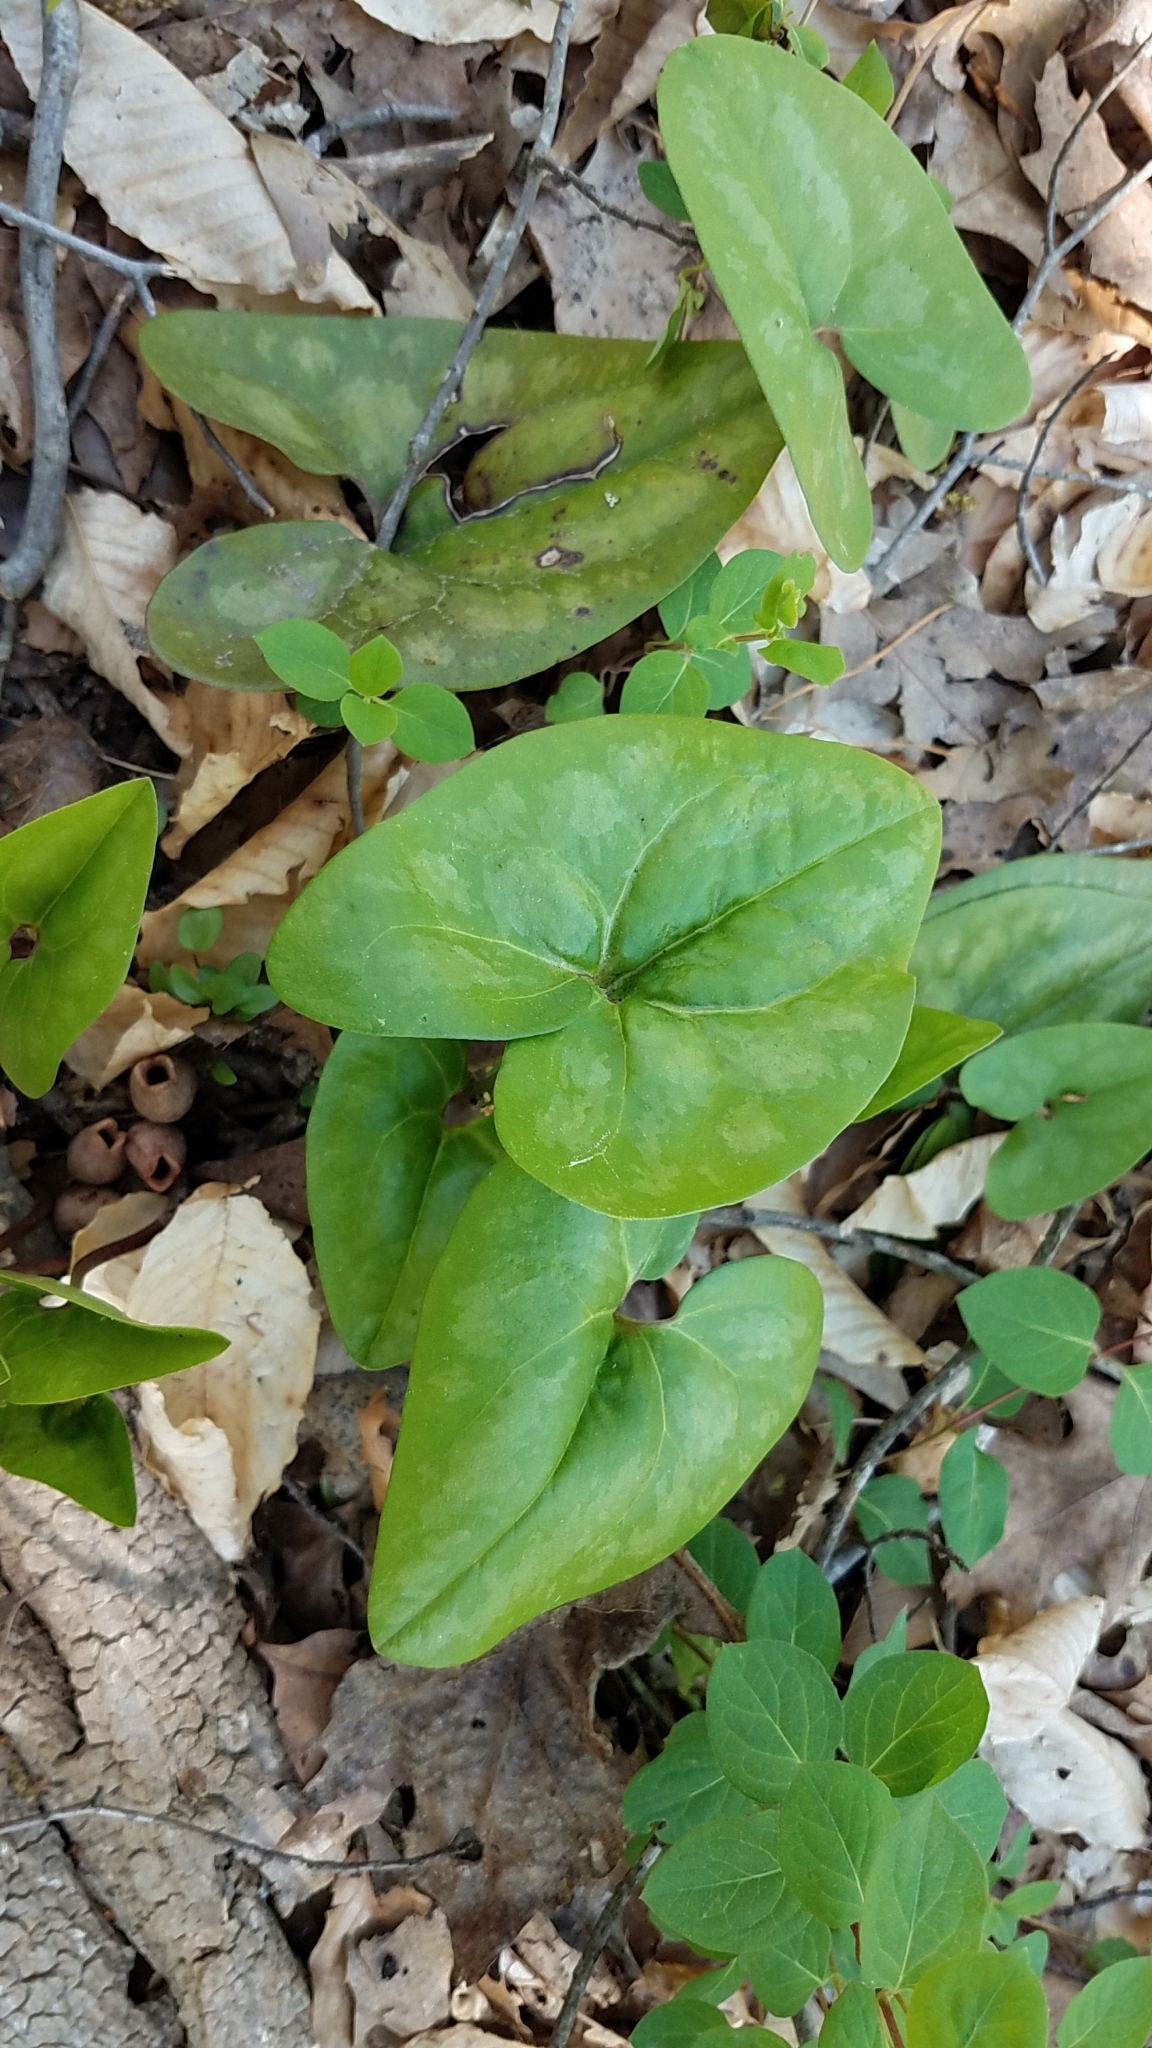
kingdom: Plantae
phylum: Tracheophyta
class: Magnoliopsida
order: Piperales
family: Aristolochiaceae
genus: Hexastylis
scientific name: Hexastylis arifolia
